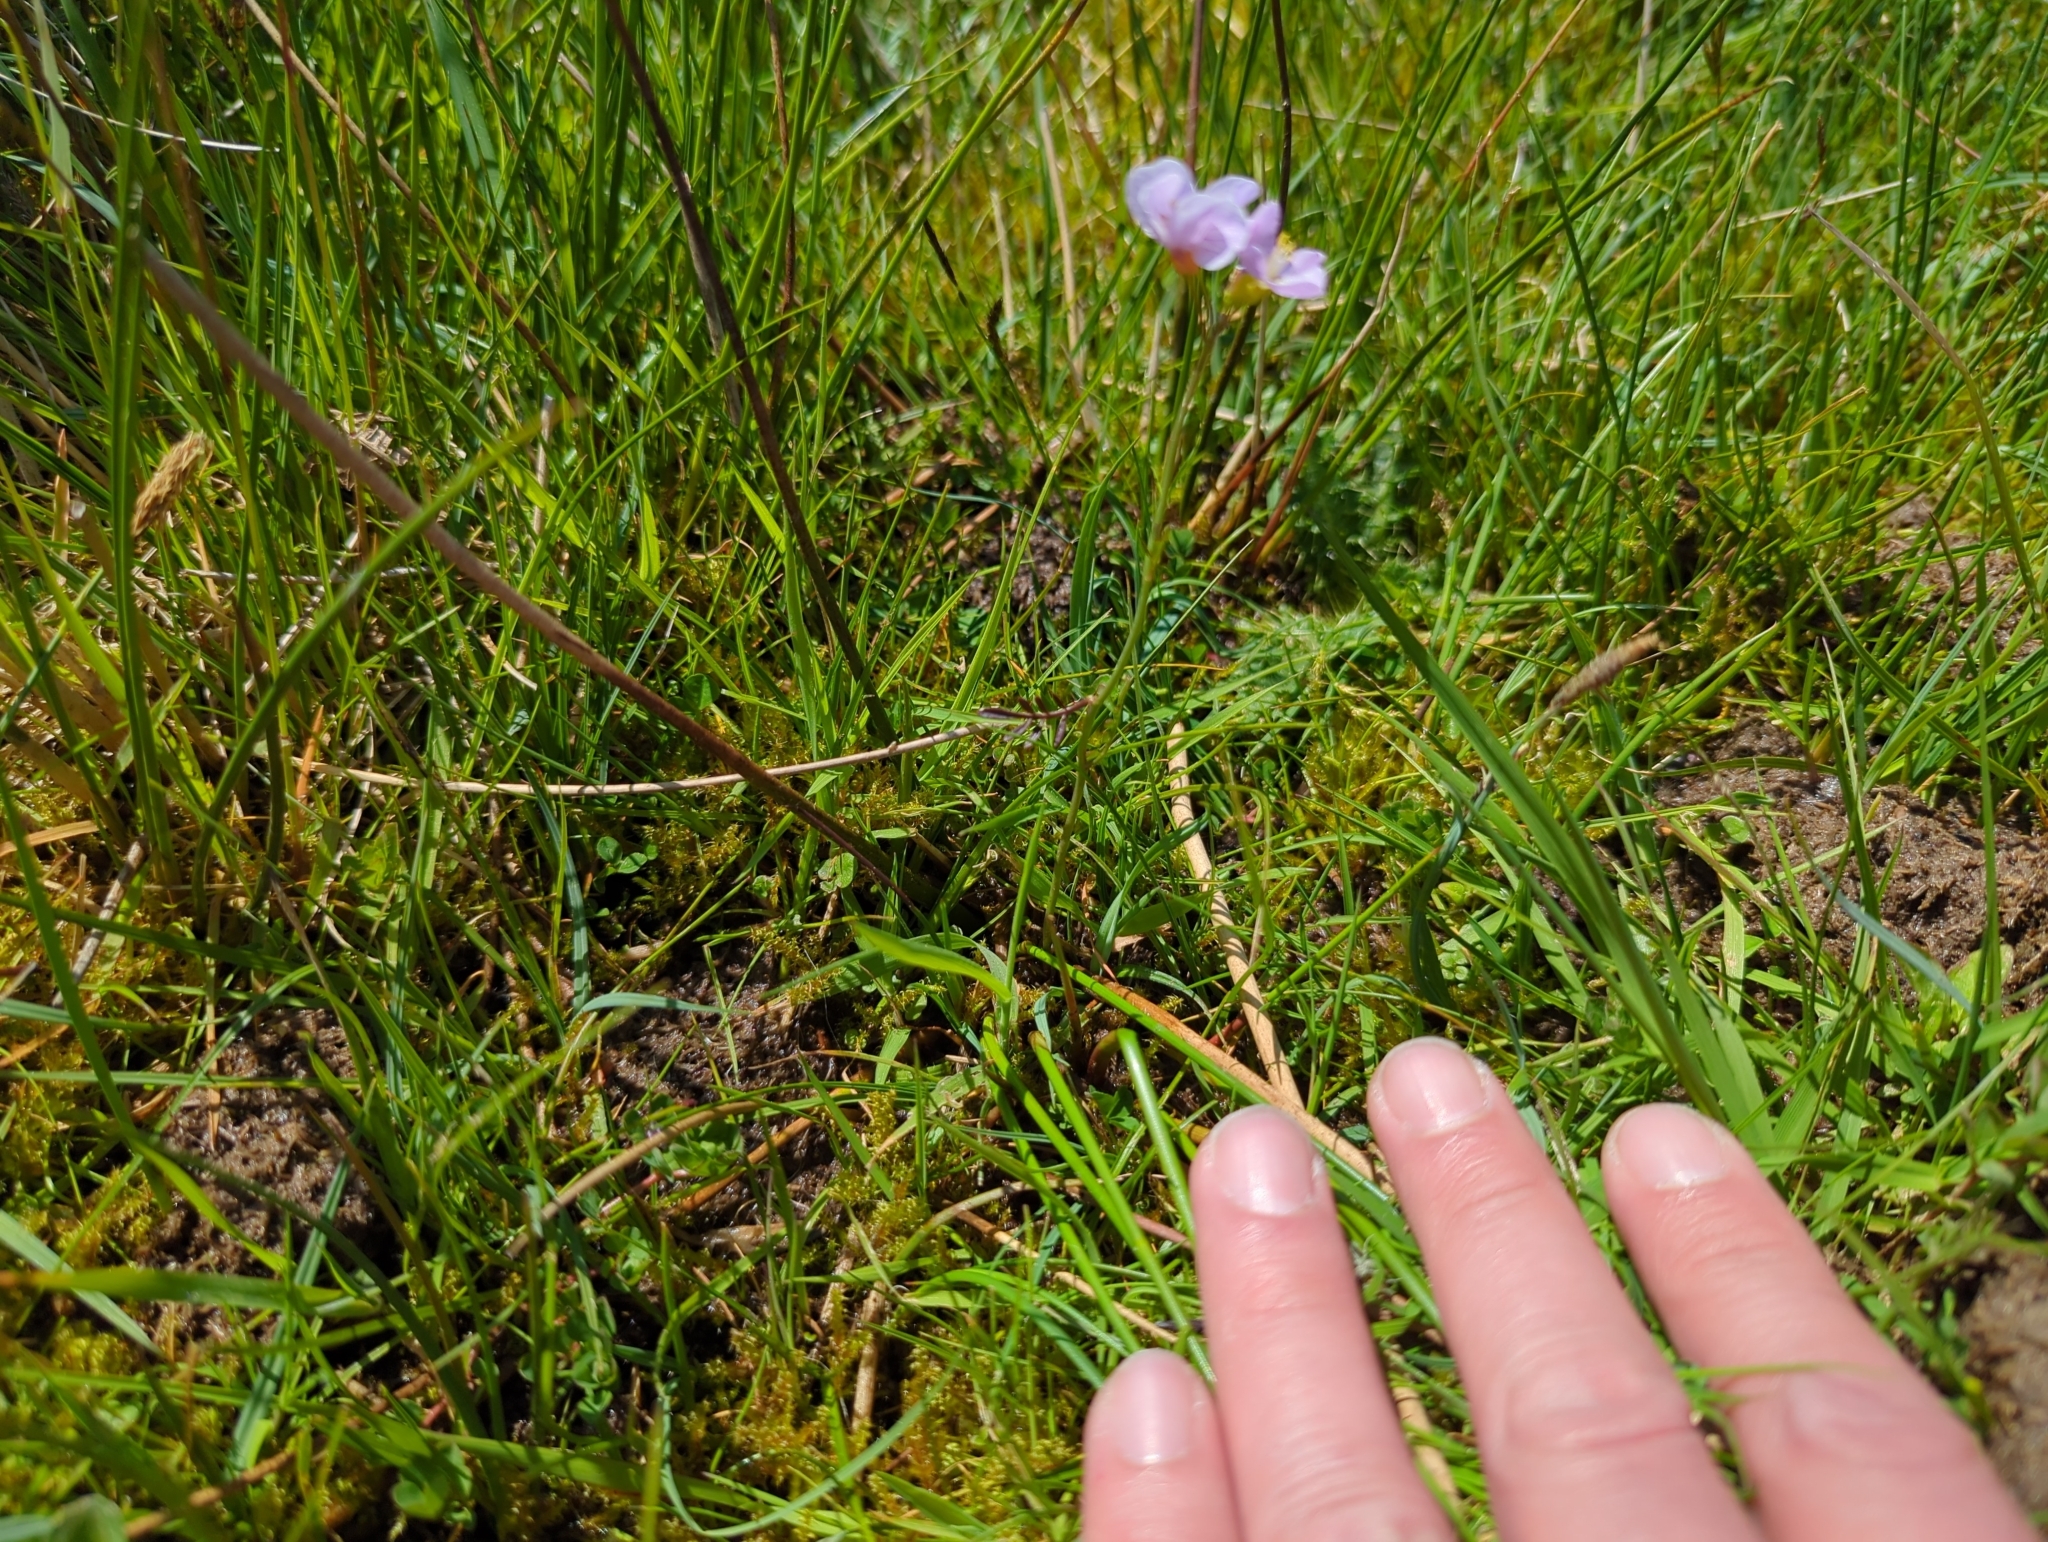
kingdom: Plantae
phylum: Tracheophyta
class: Magnoliopsida
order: Brassicales
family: Brassicaceae
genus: Cardamine
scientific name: Cardamine pratensis
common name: Cuckoo flower
